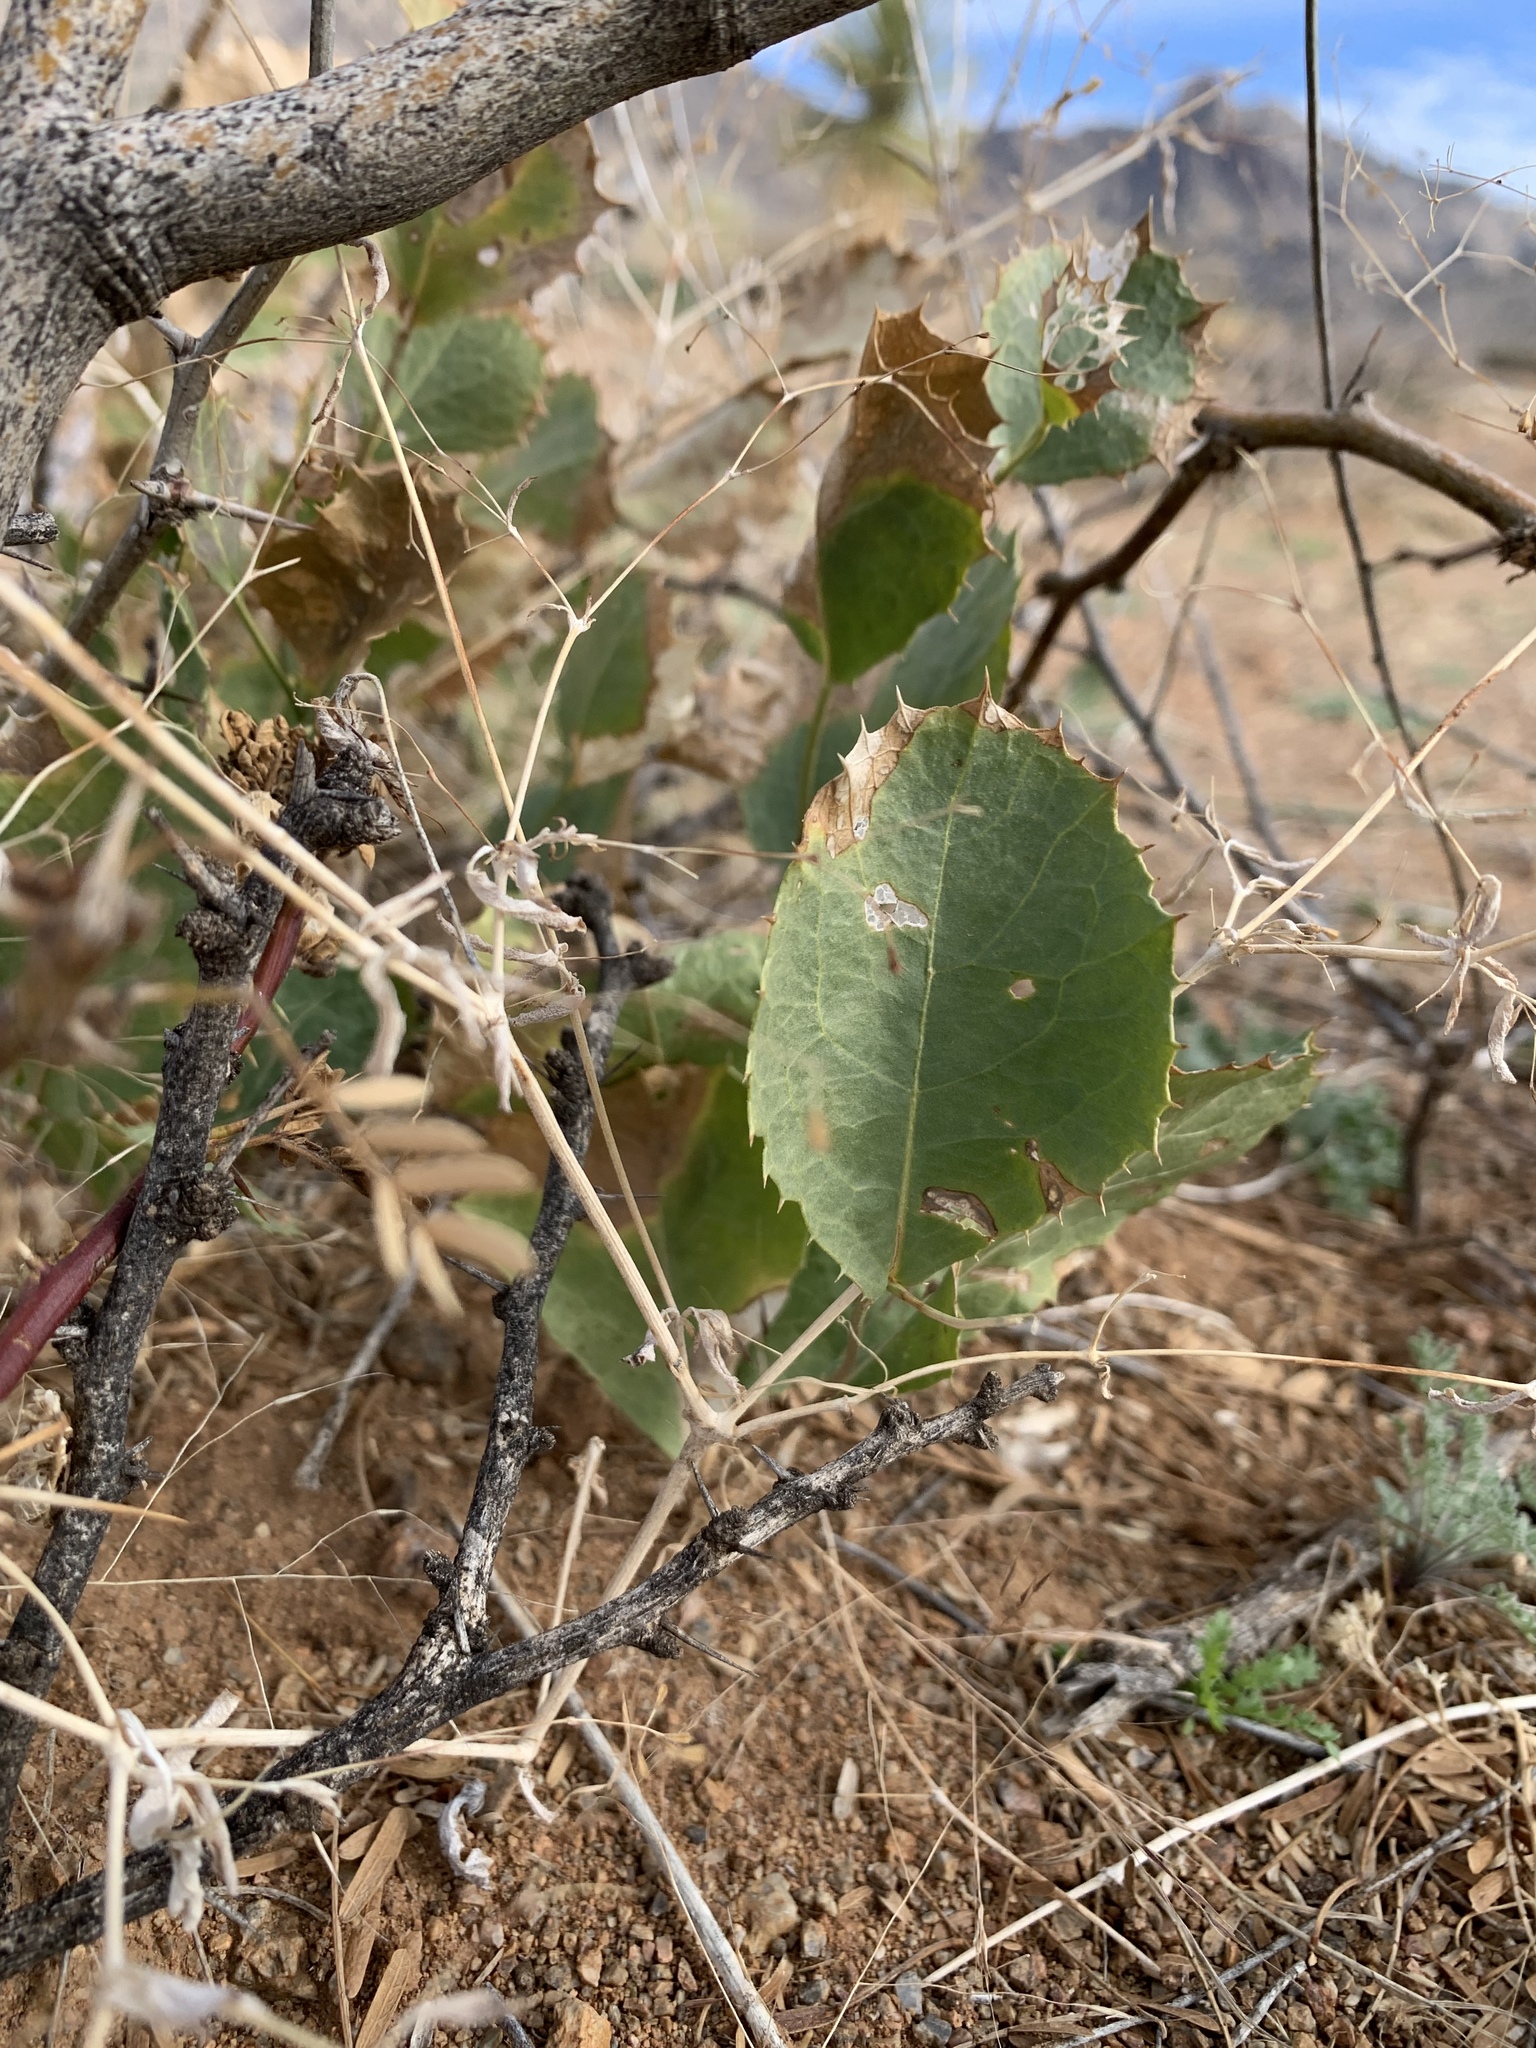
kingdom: Plantae
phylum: Tracheophyta
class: Magnoliopsida
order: Asterales
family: Asteraceae
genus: Acourtia
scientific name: Acourtia nana
